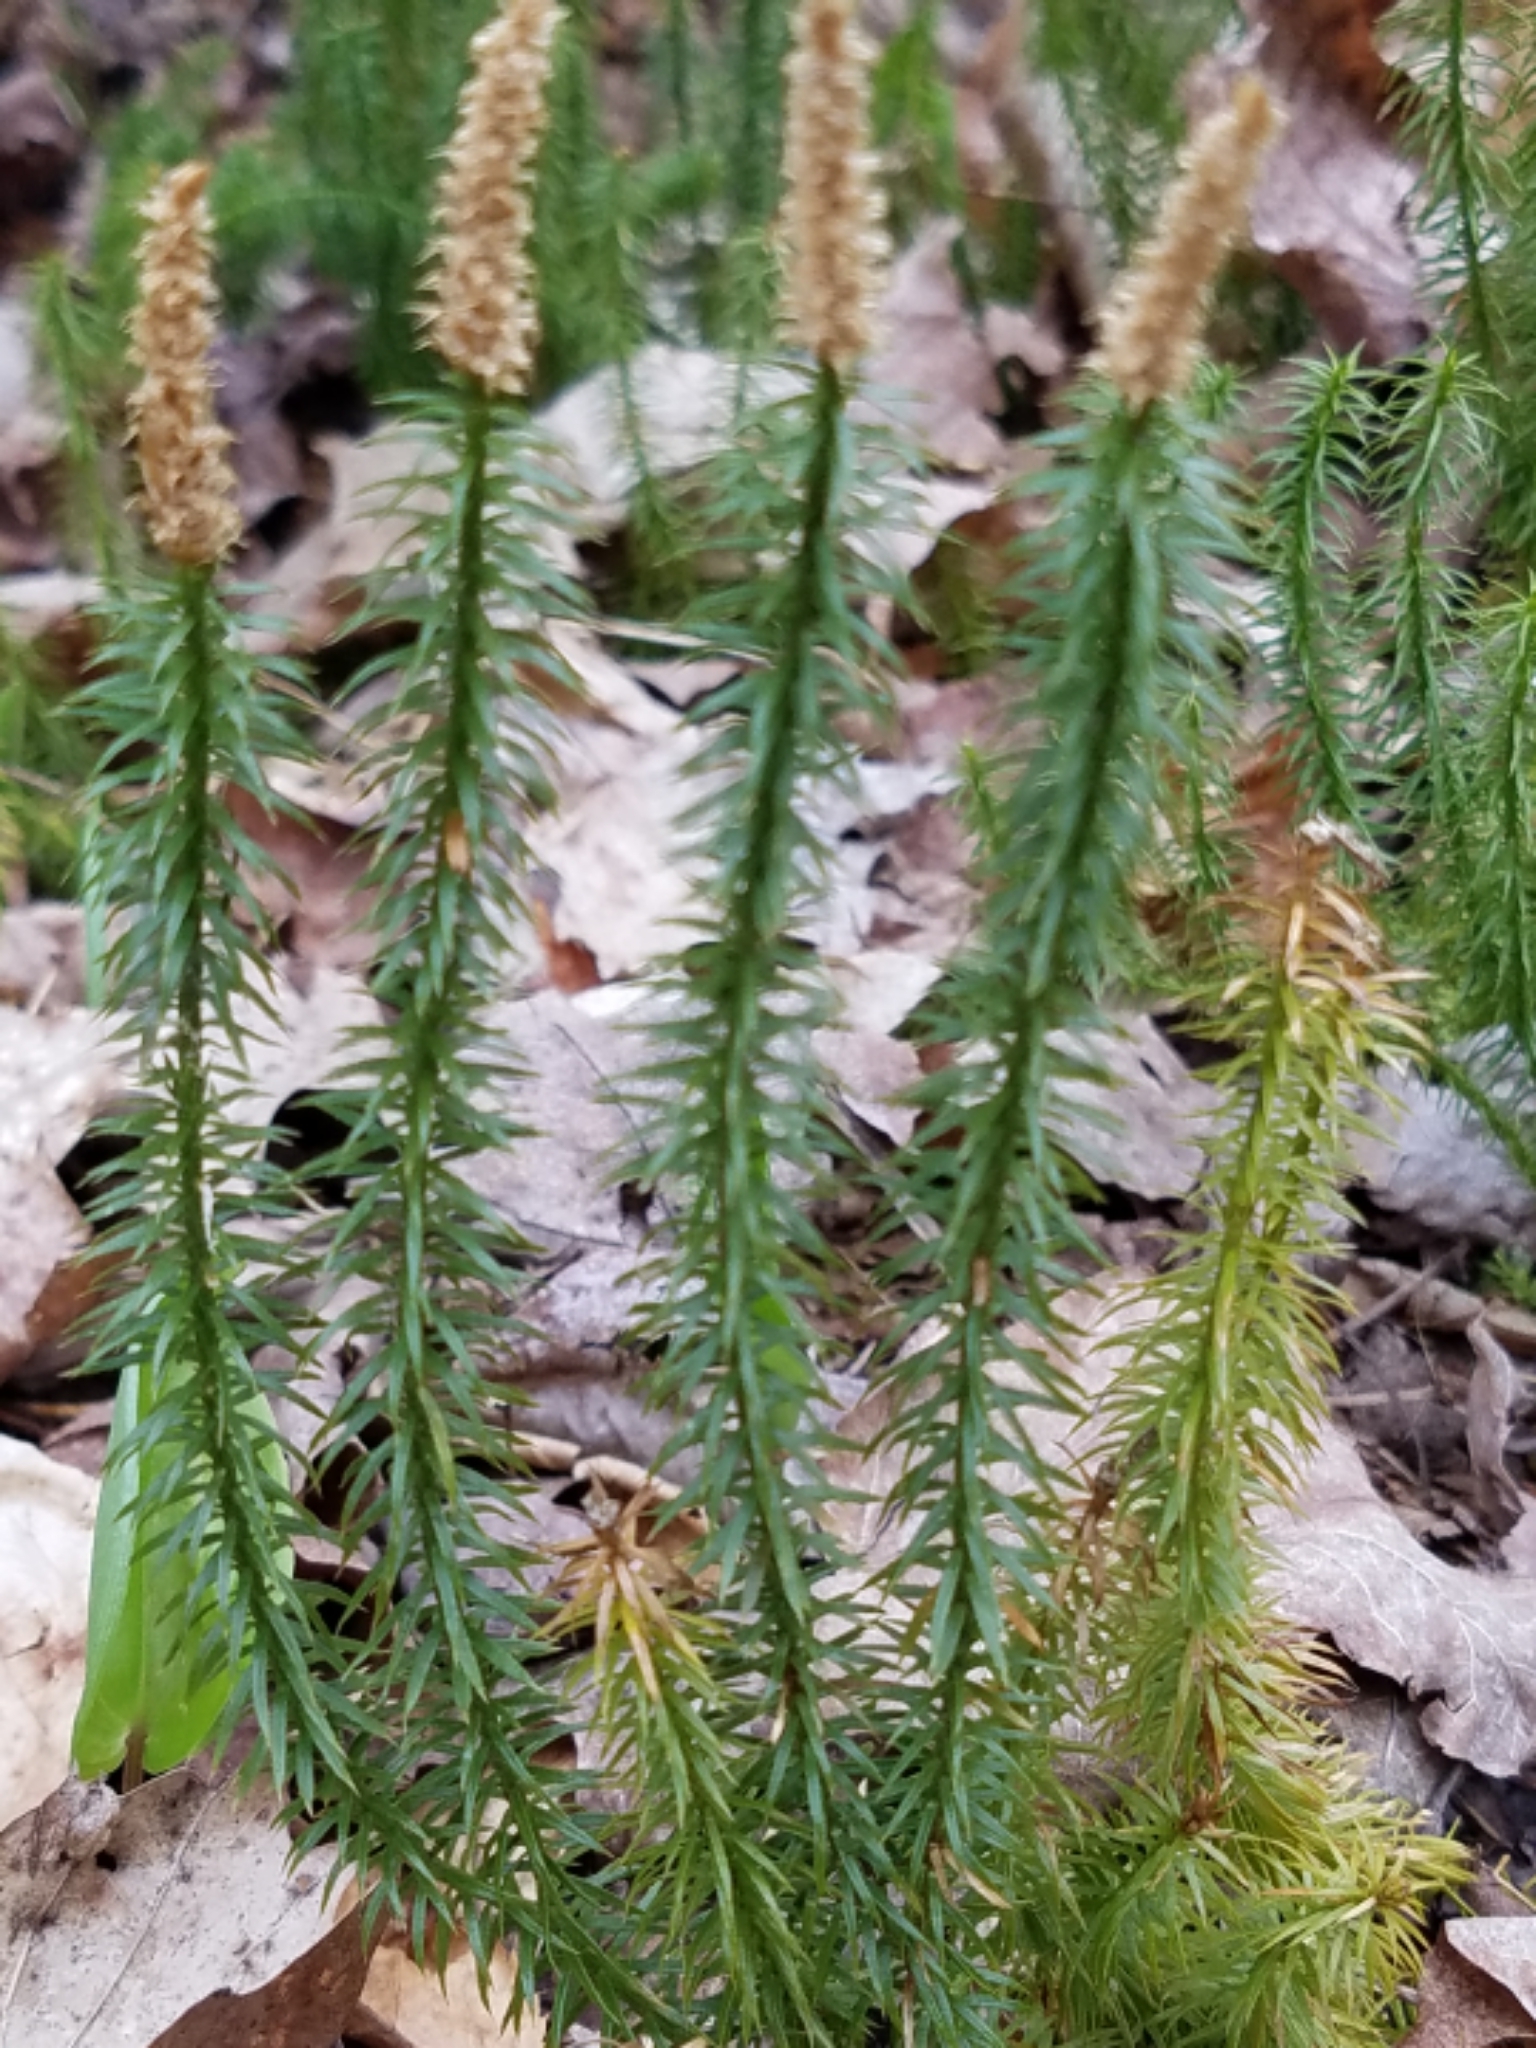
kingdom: Plantae
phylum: Tracheophyta
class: Lycopodiopsida
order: Lycopodiales
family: Lycopodiaceae
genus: Spinulum
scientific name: Spinulum annotinum
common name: Interrupted club-moss
